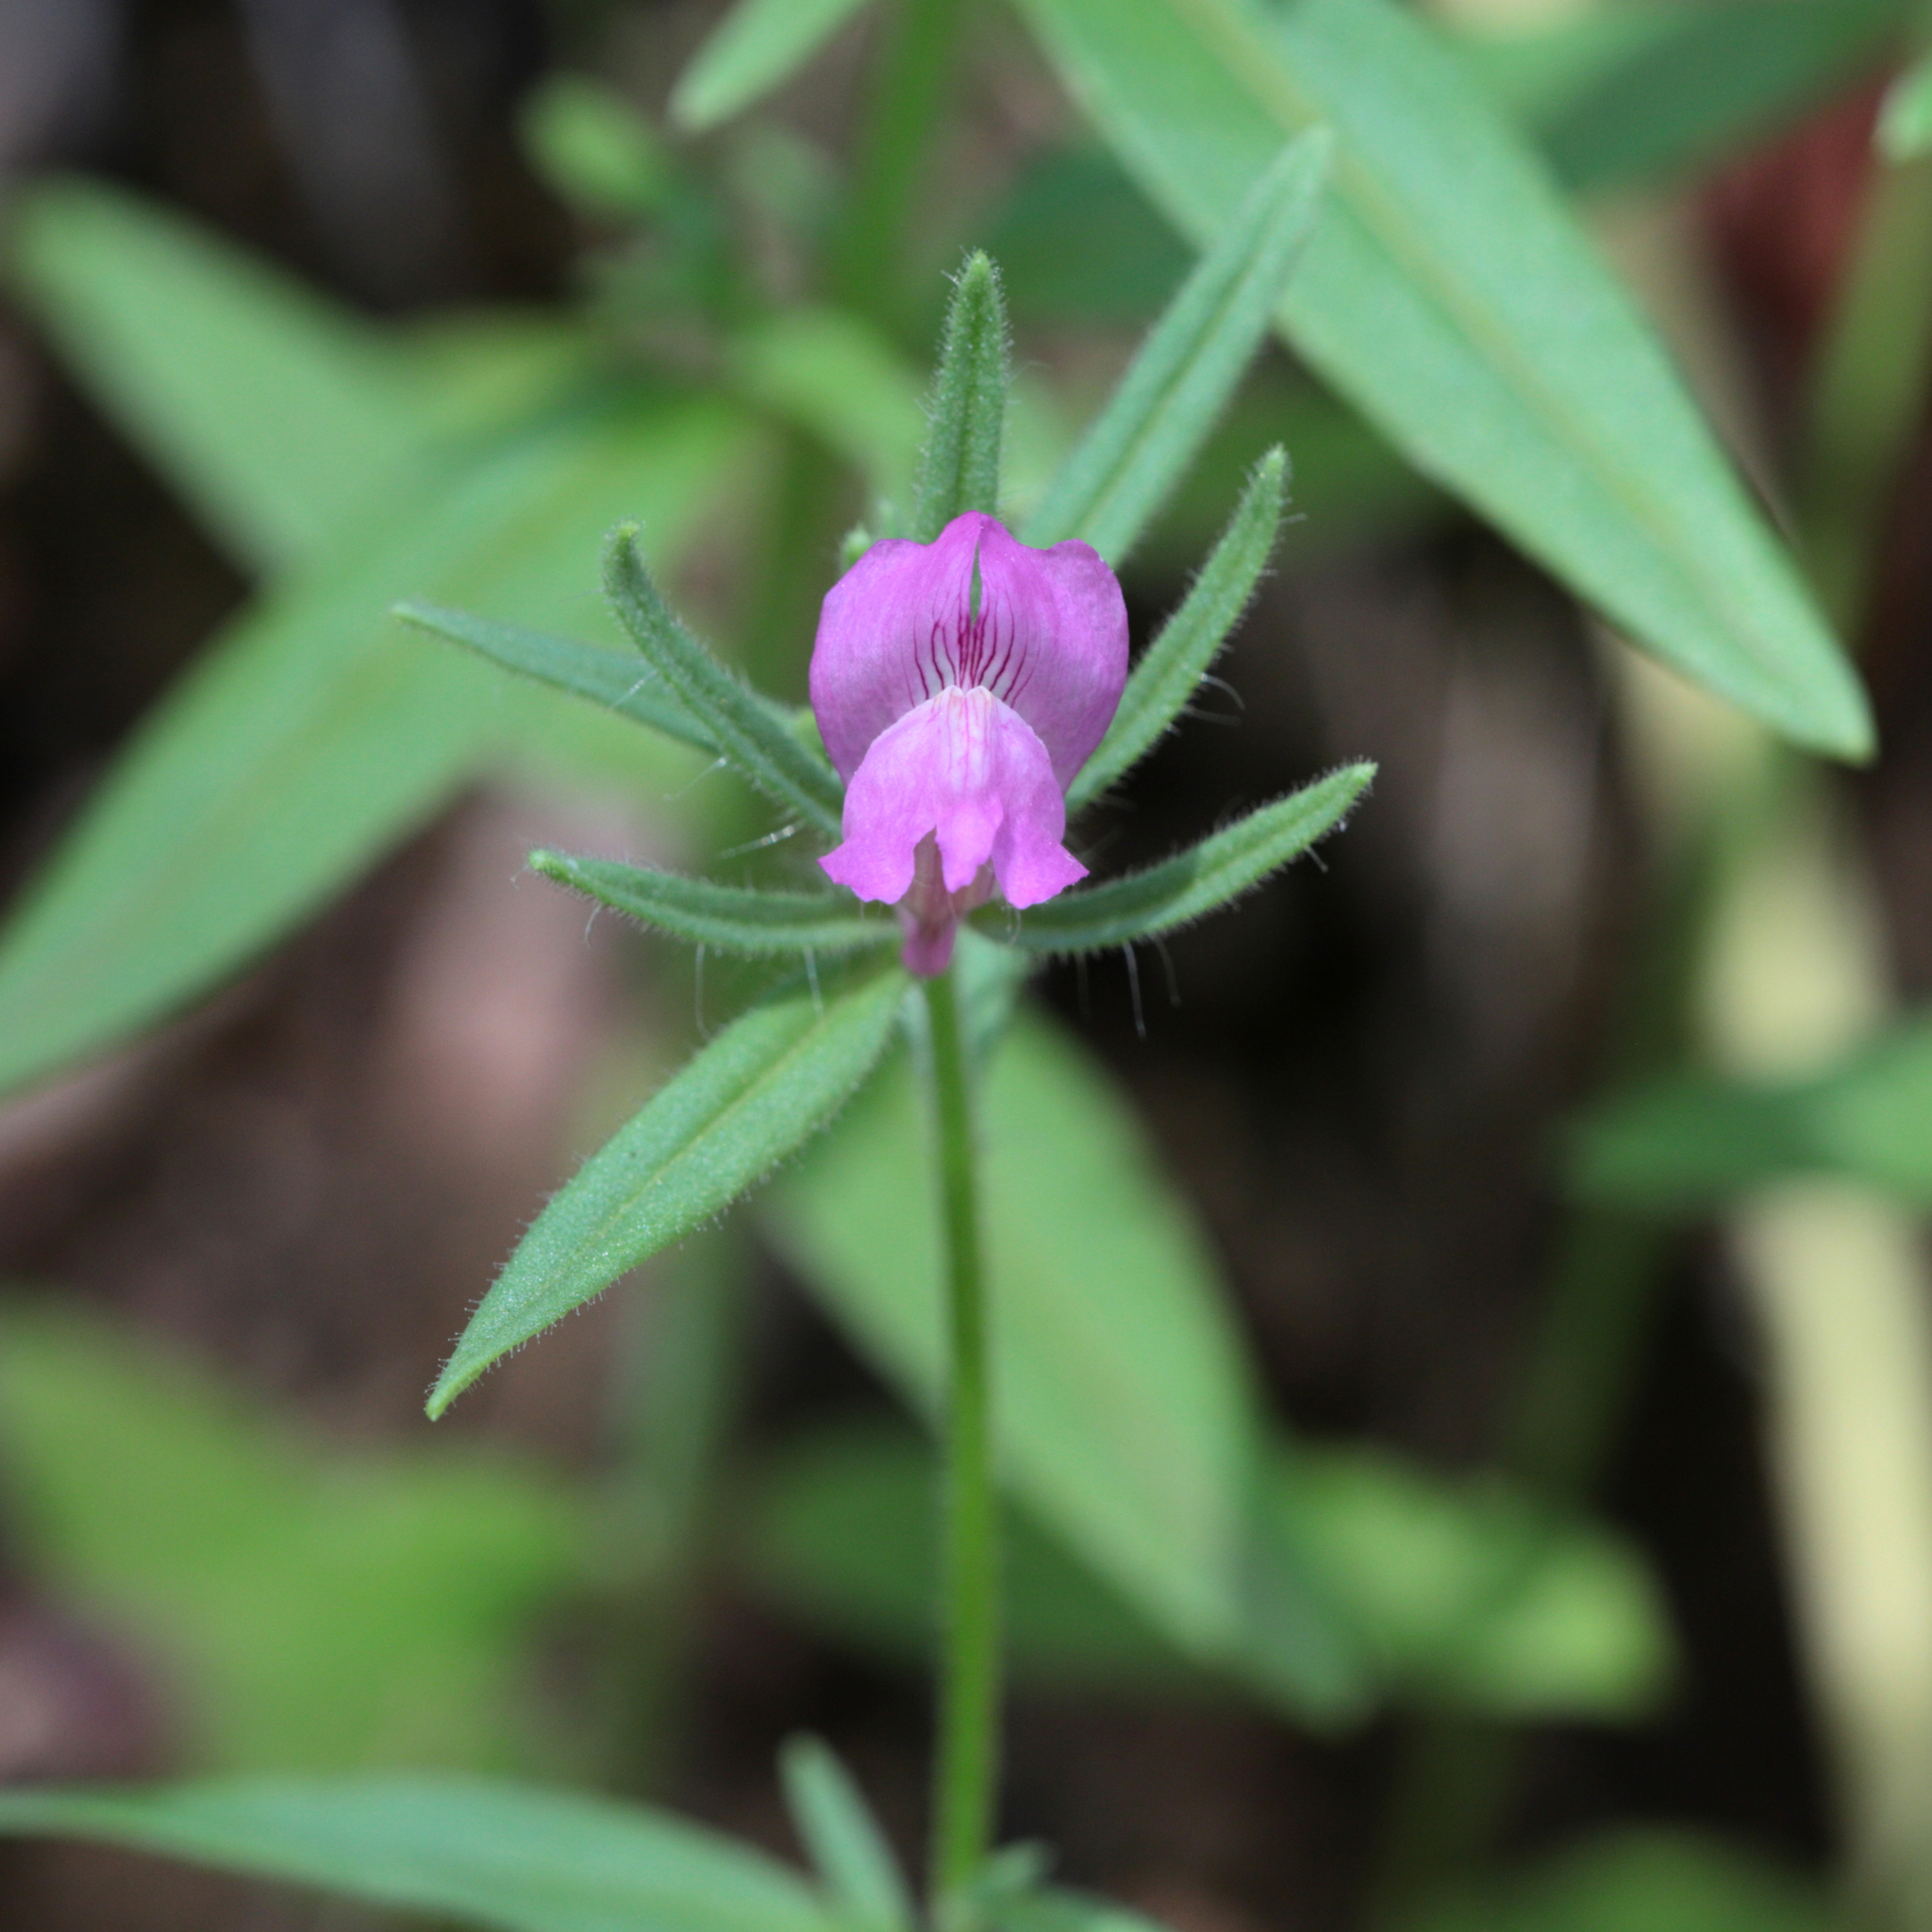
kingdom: Plantae
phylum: Tracheophyta
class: Magnoliopsida
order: Lamiales
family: Plantaginaceae
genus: Misopates
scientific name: Misopates orontium
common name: Weasel's-snout
